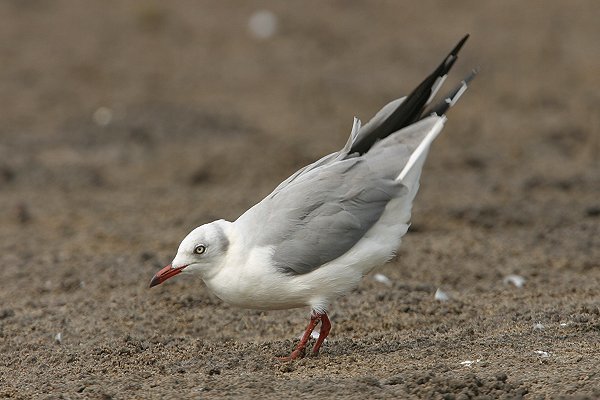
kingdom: Animalia
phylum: Chordata
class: Aves
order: Charadriiformes
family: Laridae
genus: Chroicocephalus
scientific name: Chroicocephalus cirrocephalus
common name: Grey-headed gull
